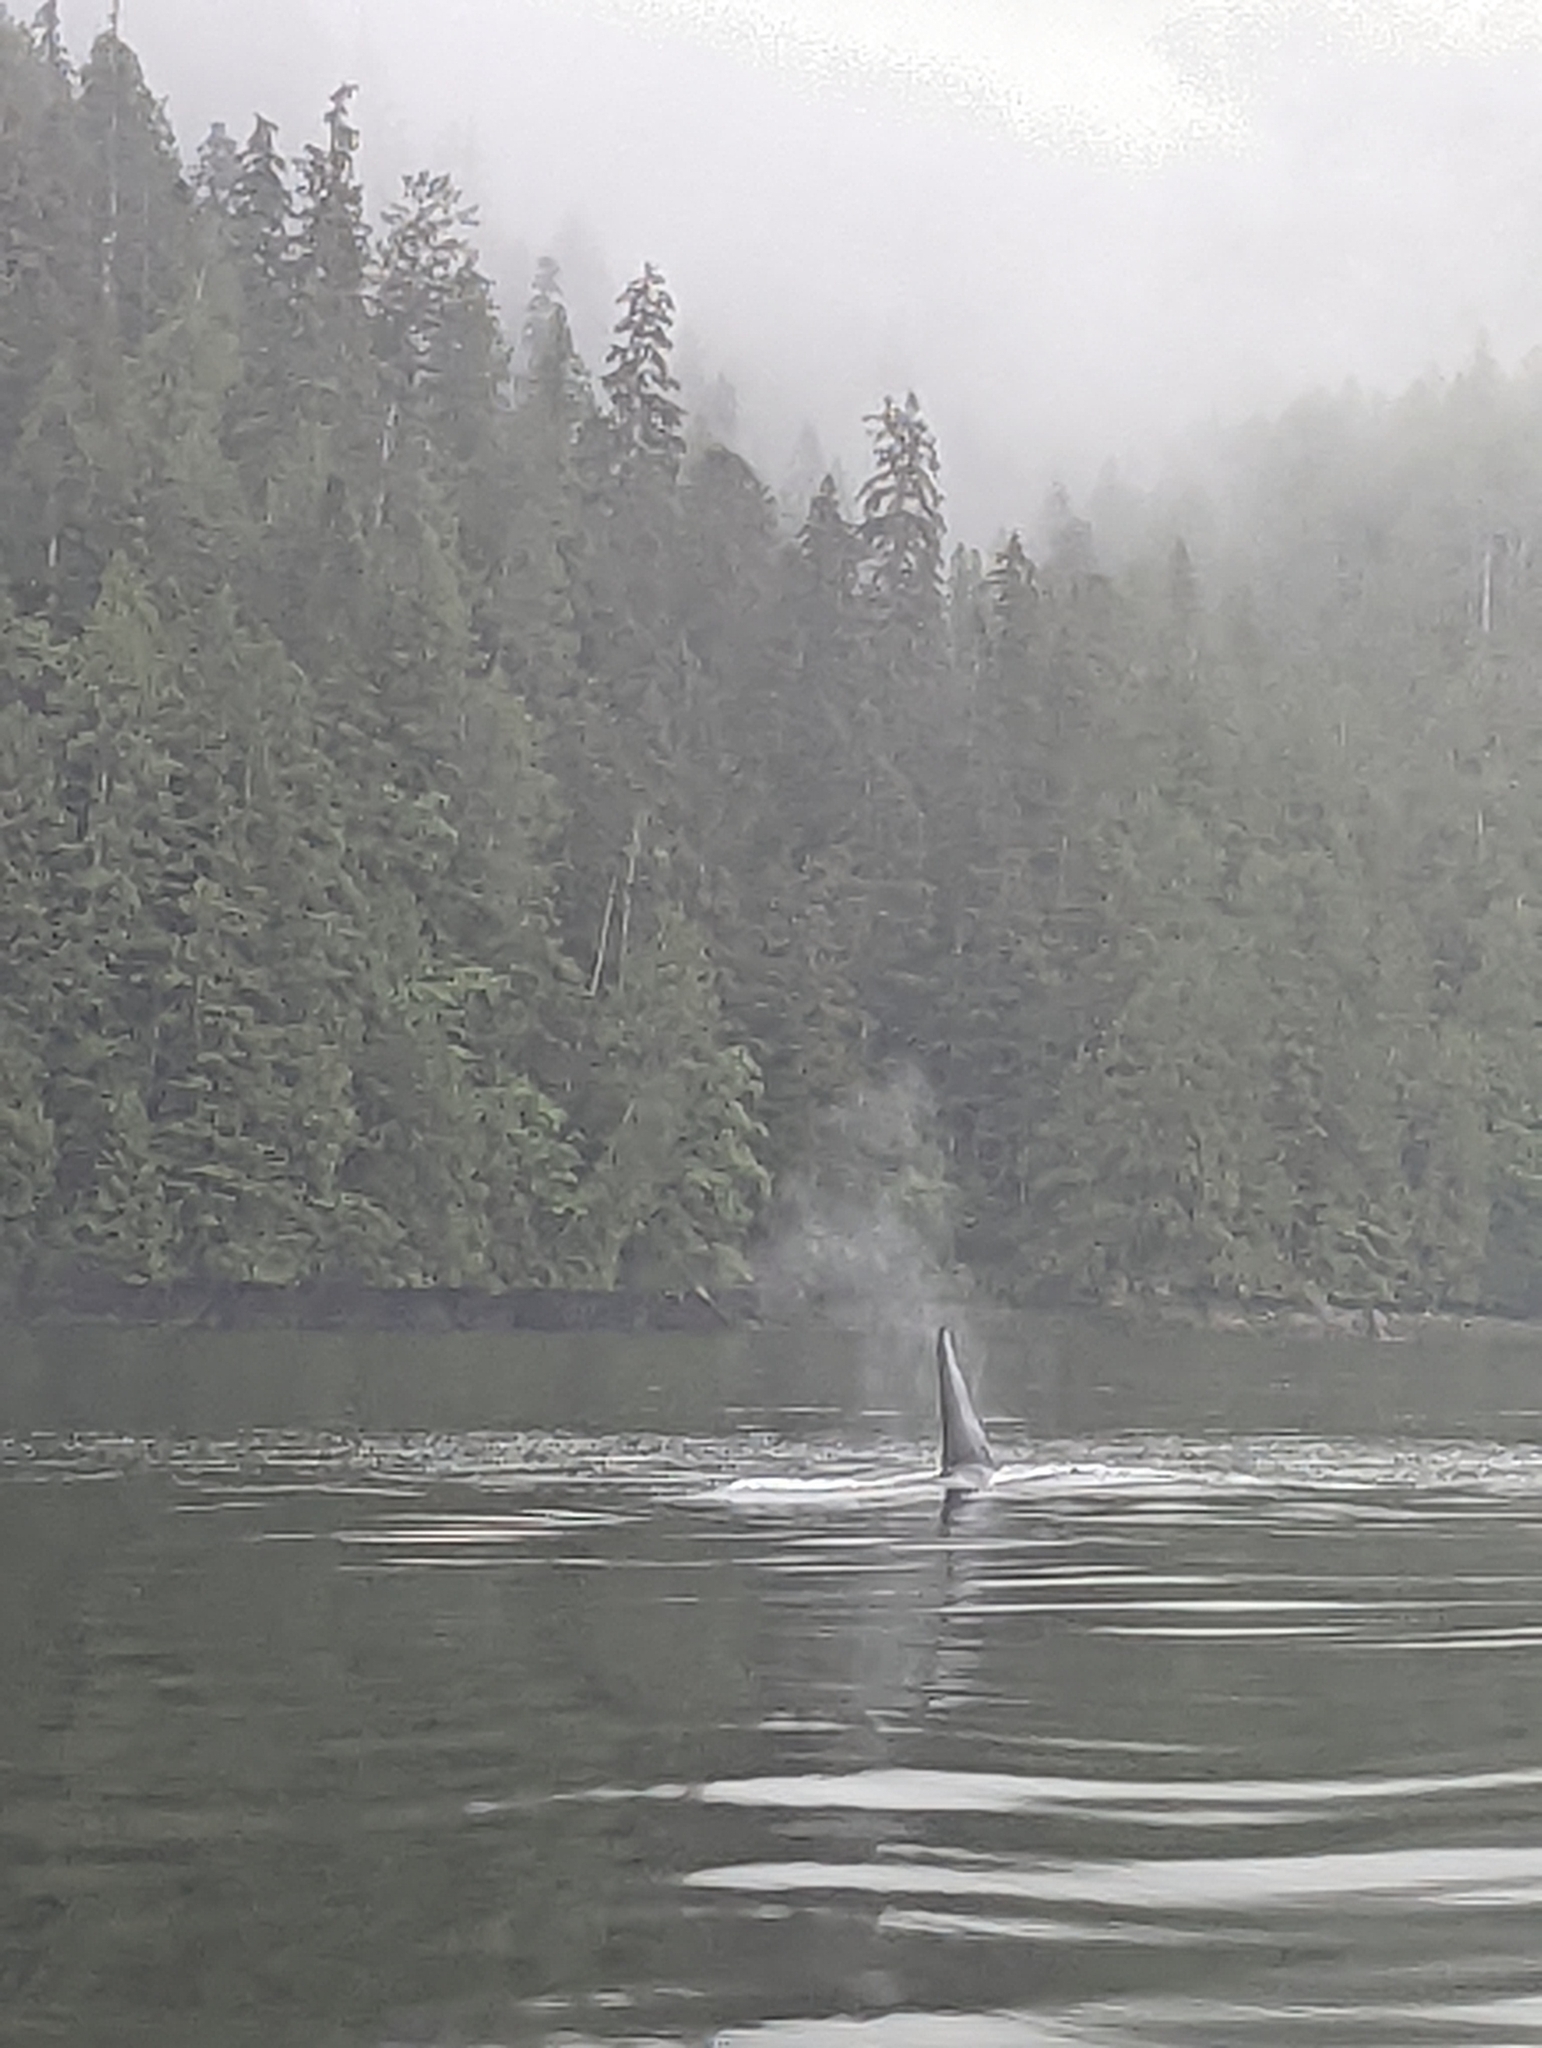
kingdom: Animalia
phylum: Chordata
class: Mammalia
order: Cetacea
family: Delphinidae
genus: Orcinus
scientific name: Orcinus orca
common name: Killer whale
